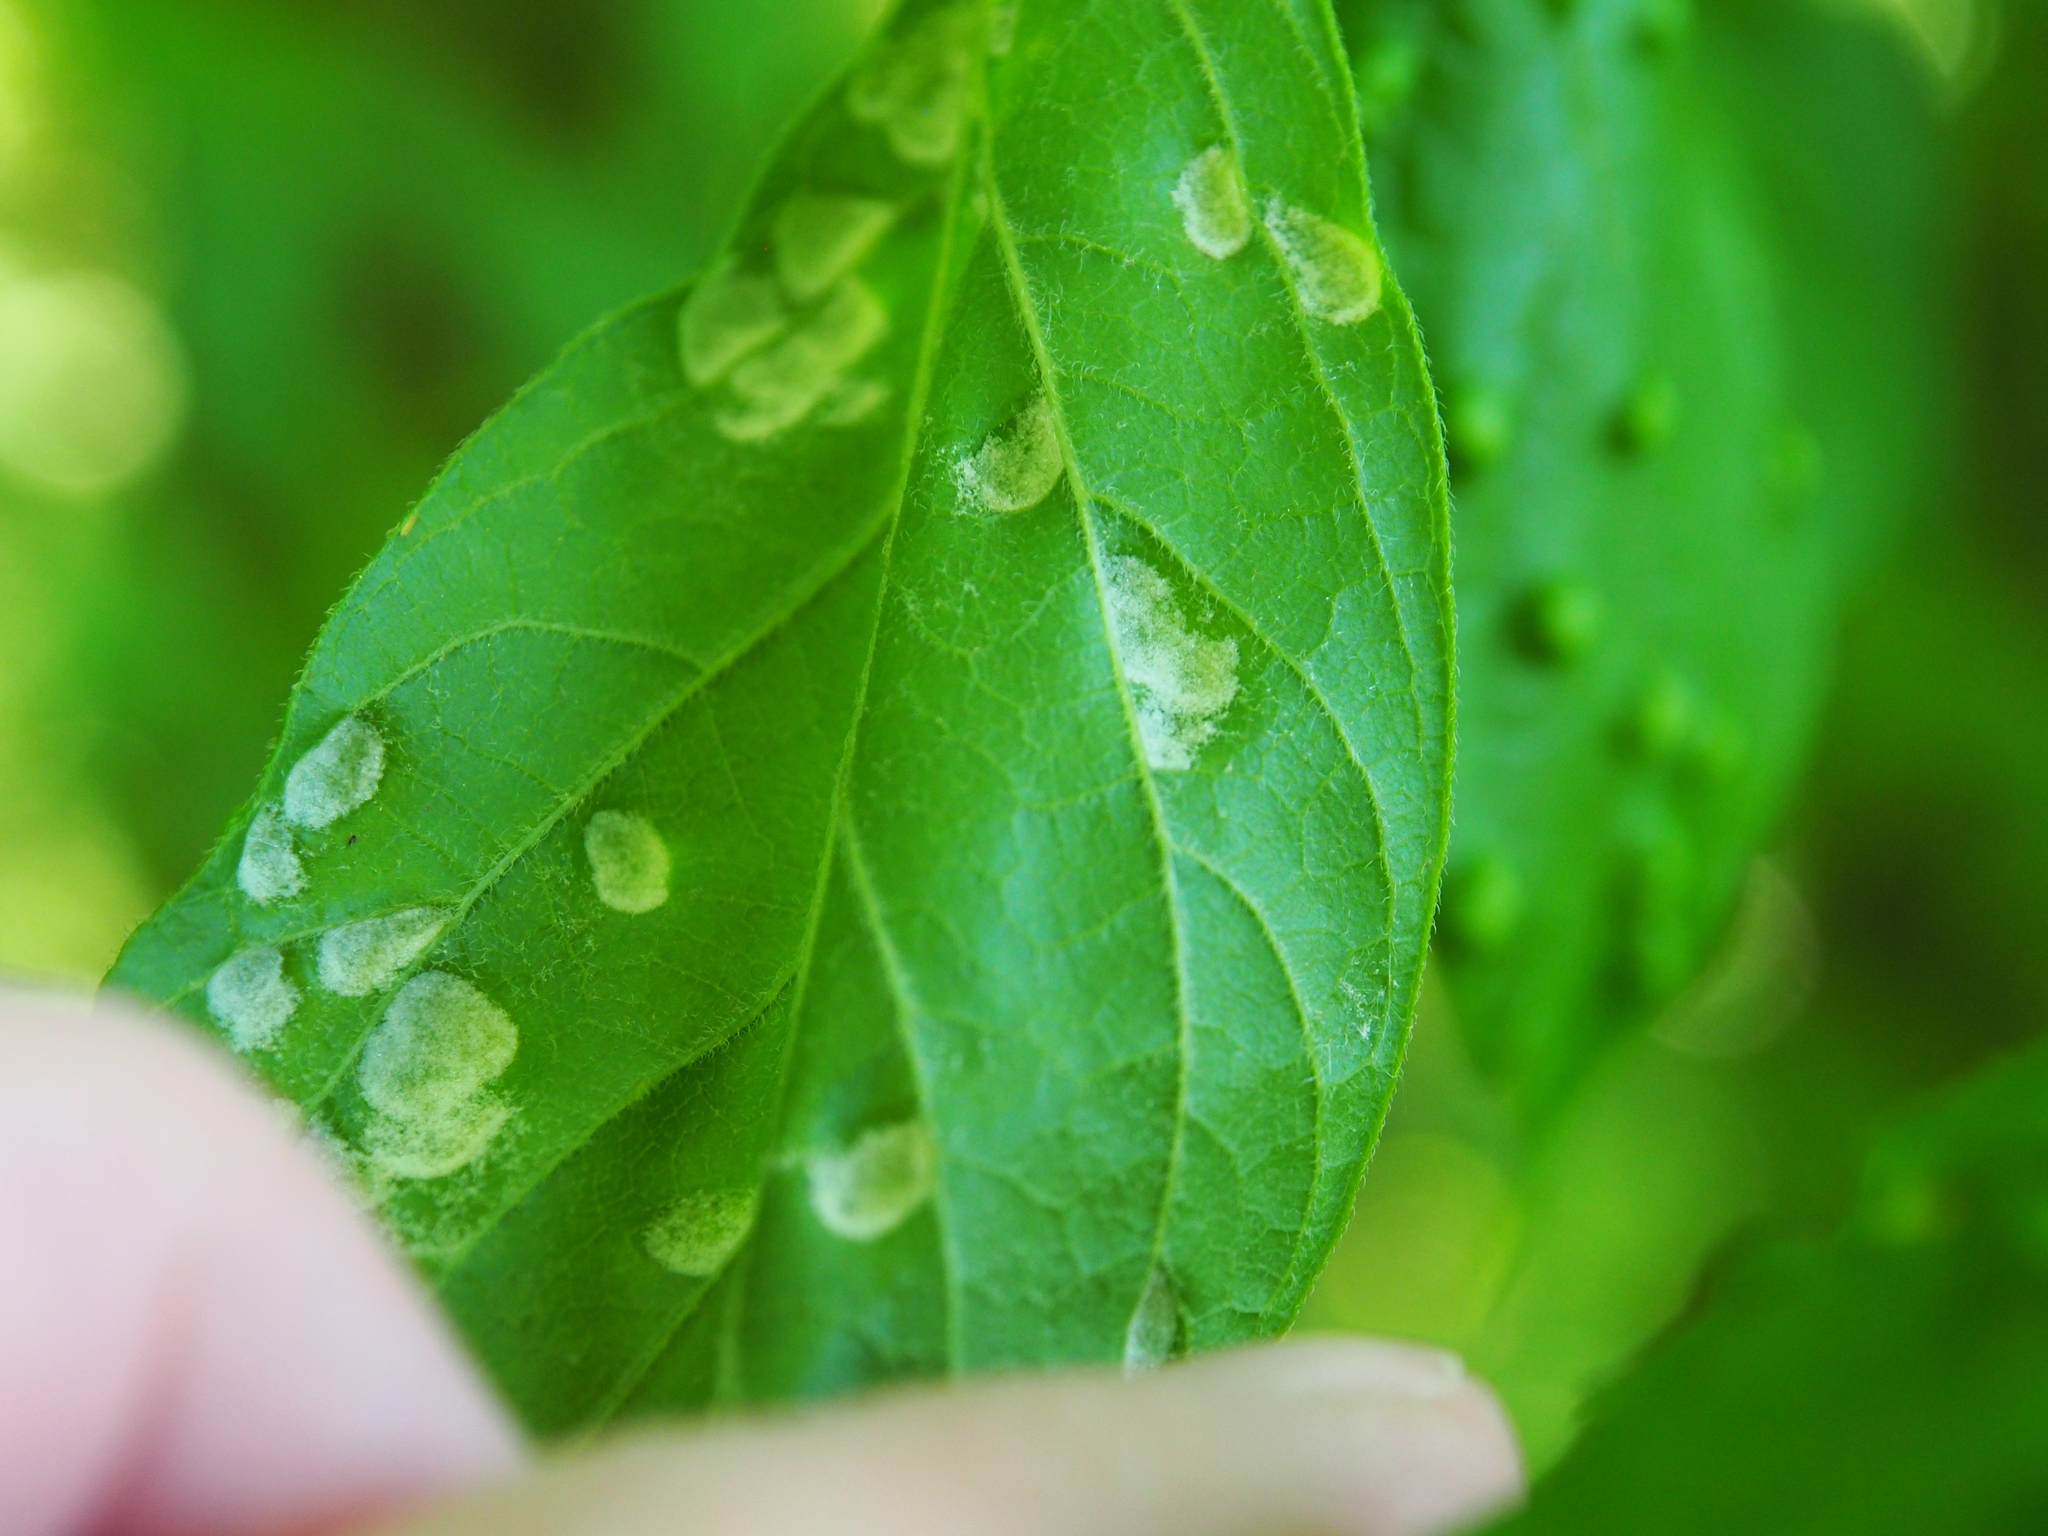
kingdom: Animalia
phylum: Arthropoda
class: Arachnida
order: Trombidiformes
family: Eriophyidae
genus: Aceria
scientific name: Aceria
